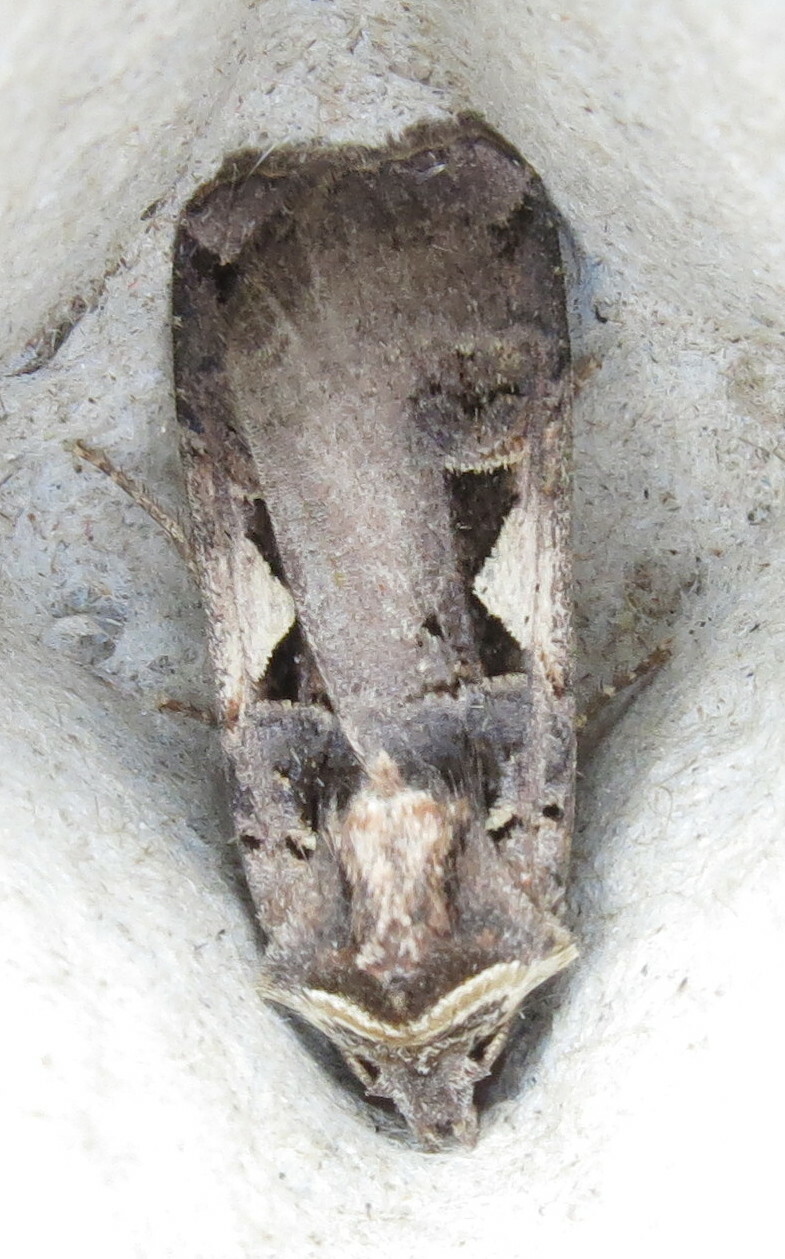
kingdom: Animalia
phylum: Arthropoda
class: Insecta
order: Lepidoptera
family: Noctuidae
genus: Xestia
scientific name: Xestia c-nigrum
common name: Setaceous hebrew character
